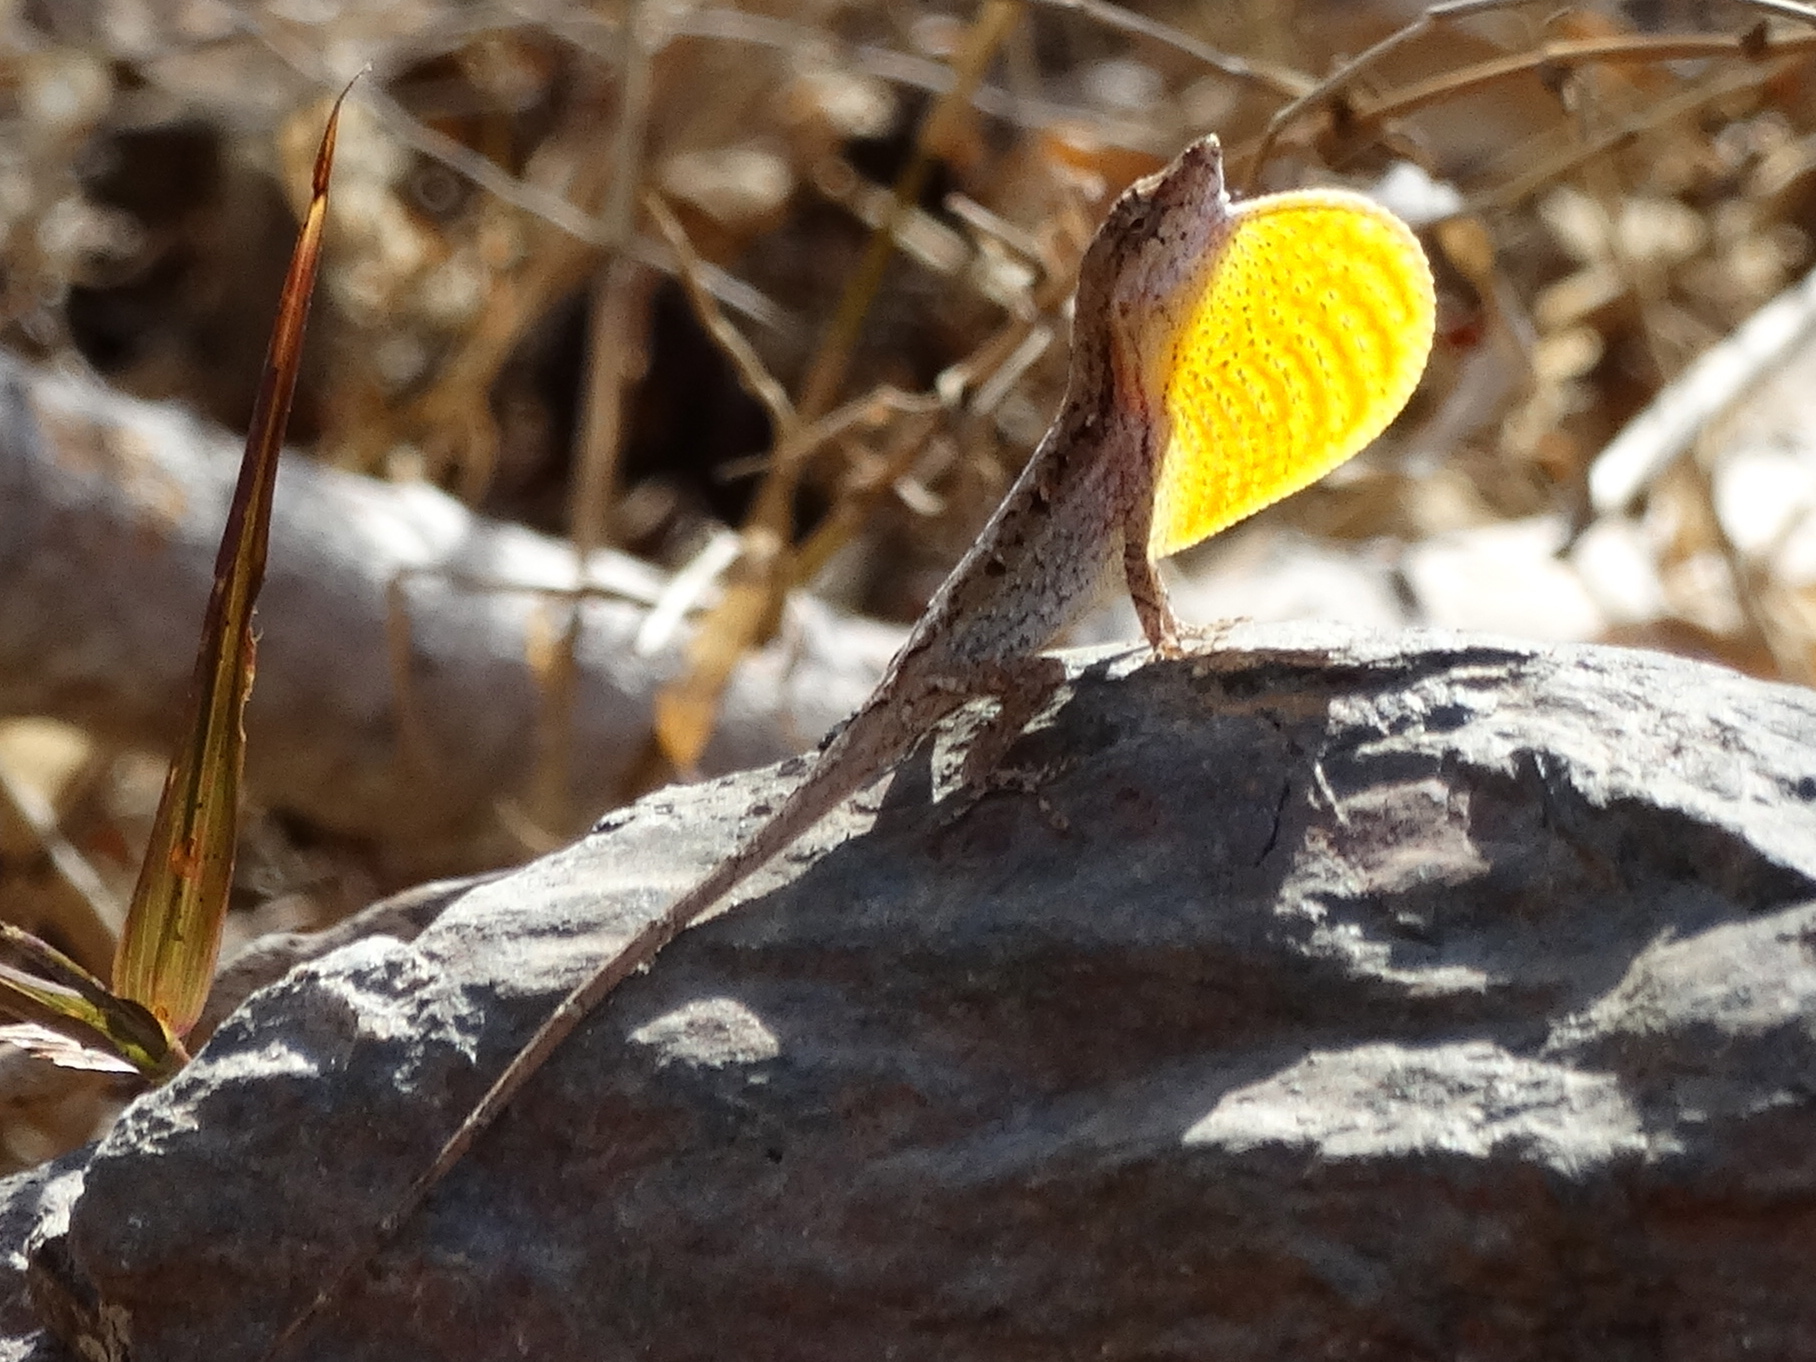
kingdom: Animalia
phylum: Chordata
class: Squamata
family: Dactyloidae
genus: Anolis
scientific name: Anolis nebulosus
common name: Clouded anole
